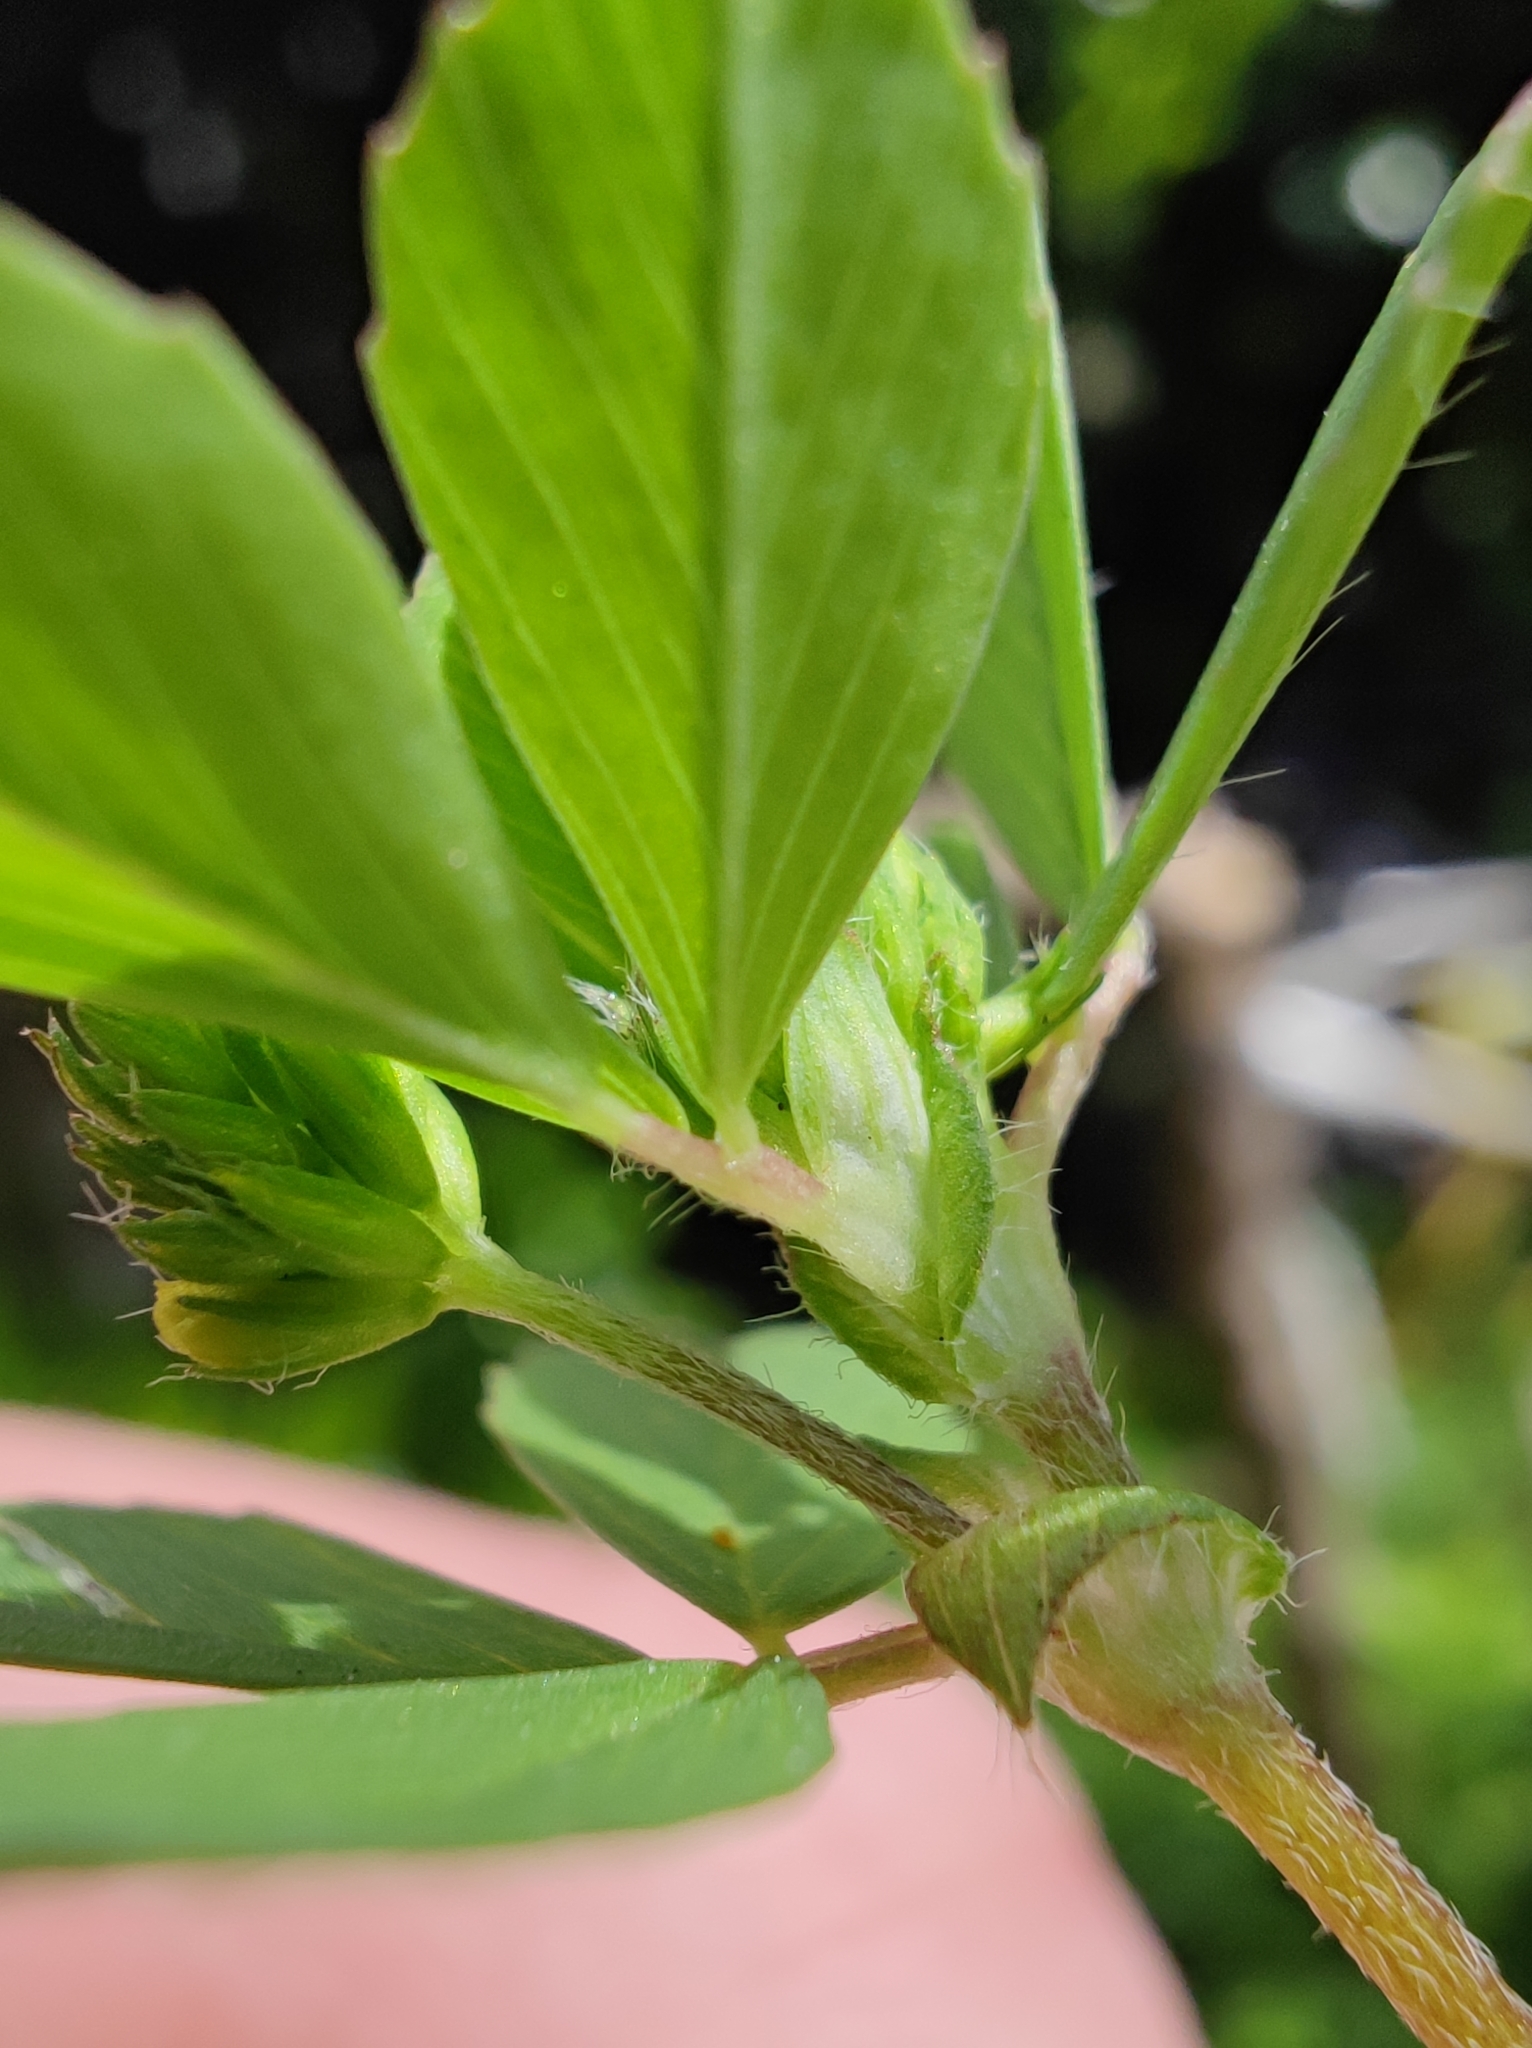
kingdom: Plantae
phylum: Tracheophyta
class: Magnoliopsida
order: Fabales
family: Fabaceae
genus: Trifolium
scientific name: Trifolium dubium
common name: Suckling clover
